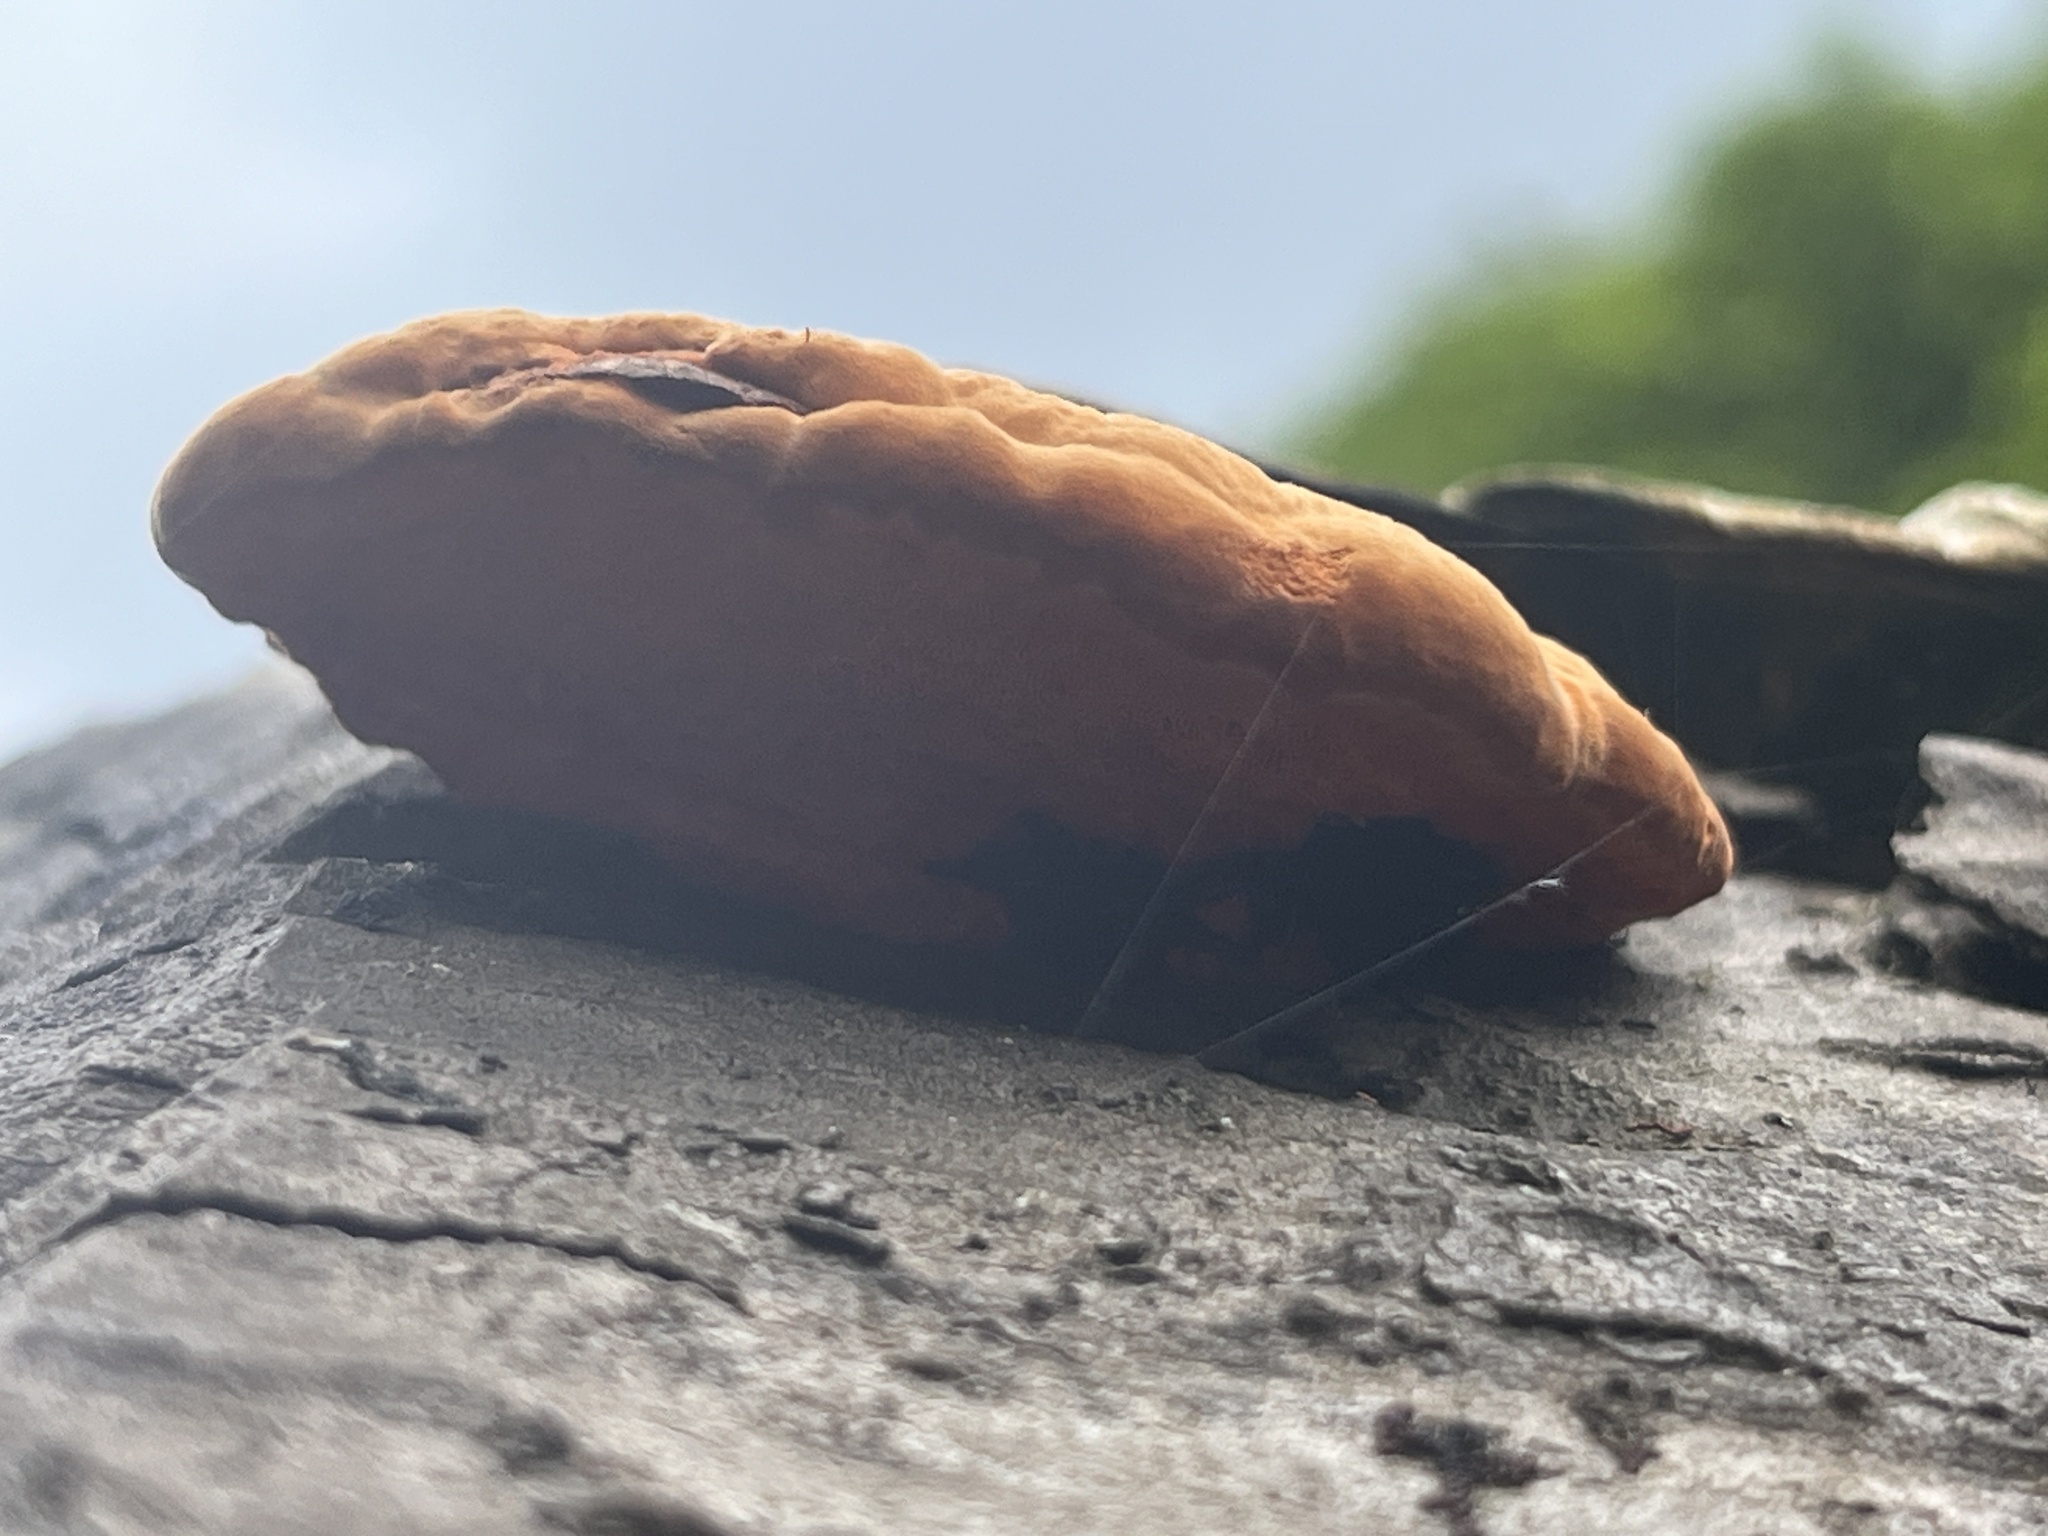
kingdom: Fungi
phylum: Basidiomycota
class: Agaricomycetes
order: Polyporales
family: Polyporaceae
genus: Trametes
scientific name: Trametes coccinea
